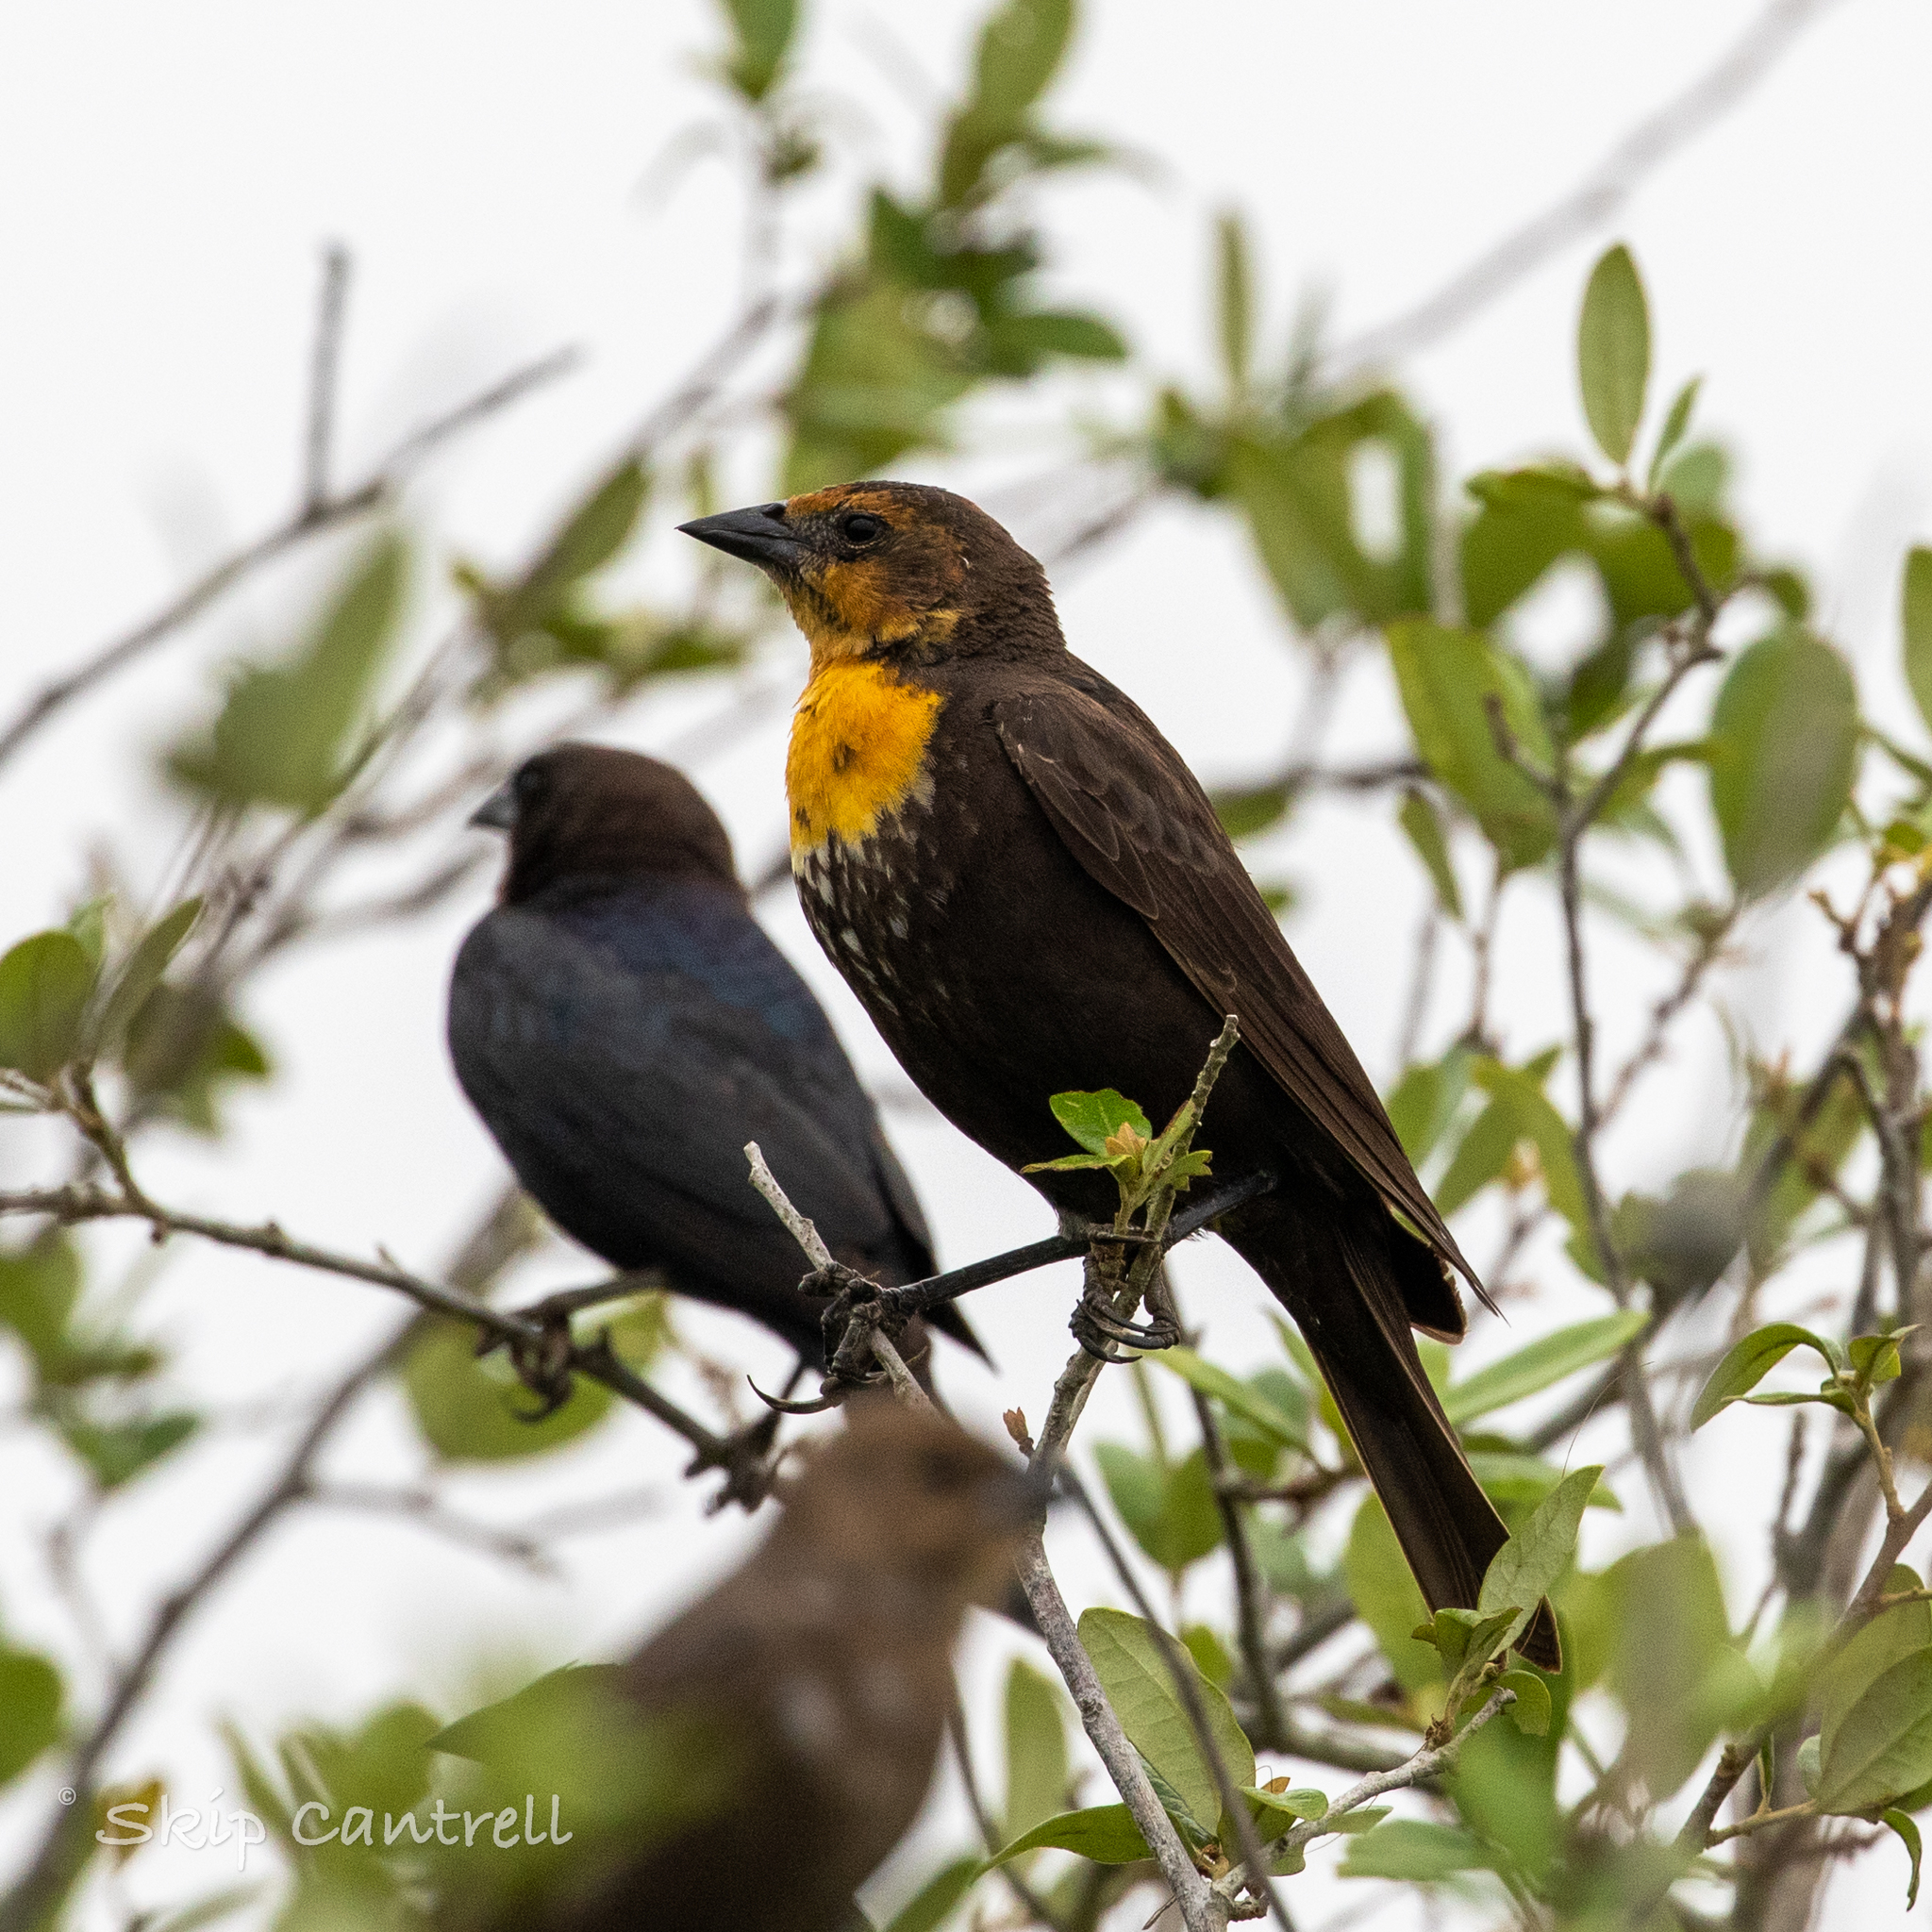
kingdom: Animalia
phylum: Chordata
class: Aves
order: Passeriformes
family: Icteridae
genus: Xanthocephalus
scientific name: Xanthocephalus xanthocephalus
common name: Yellow-headed blackbird
